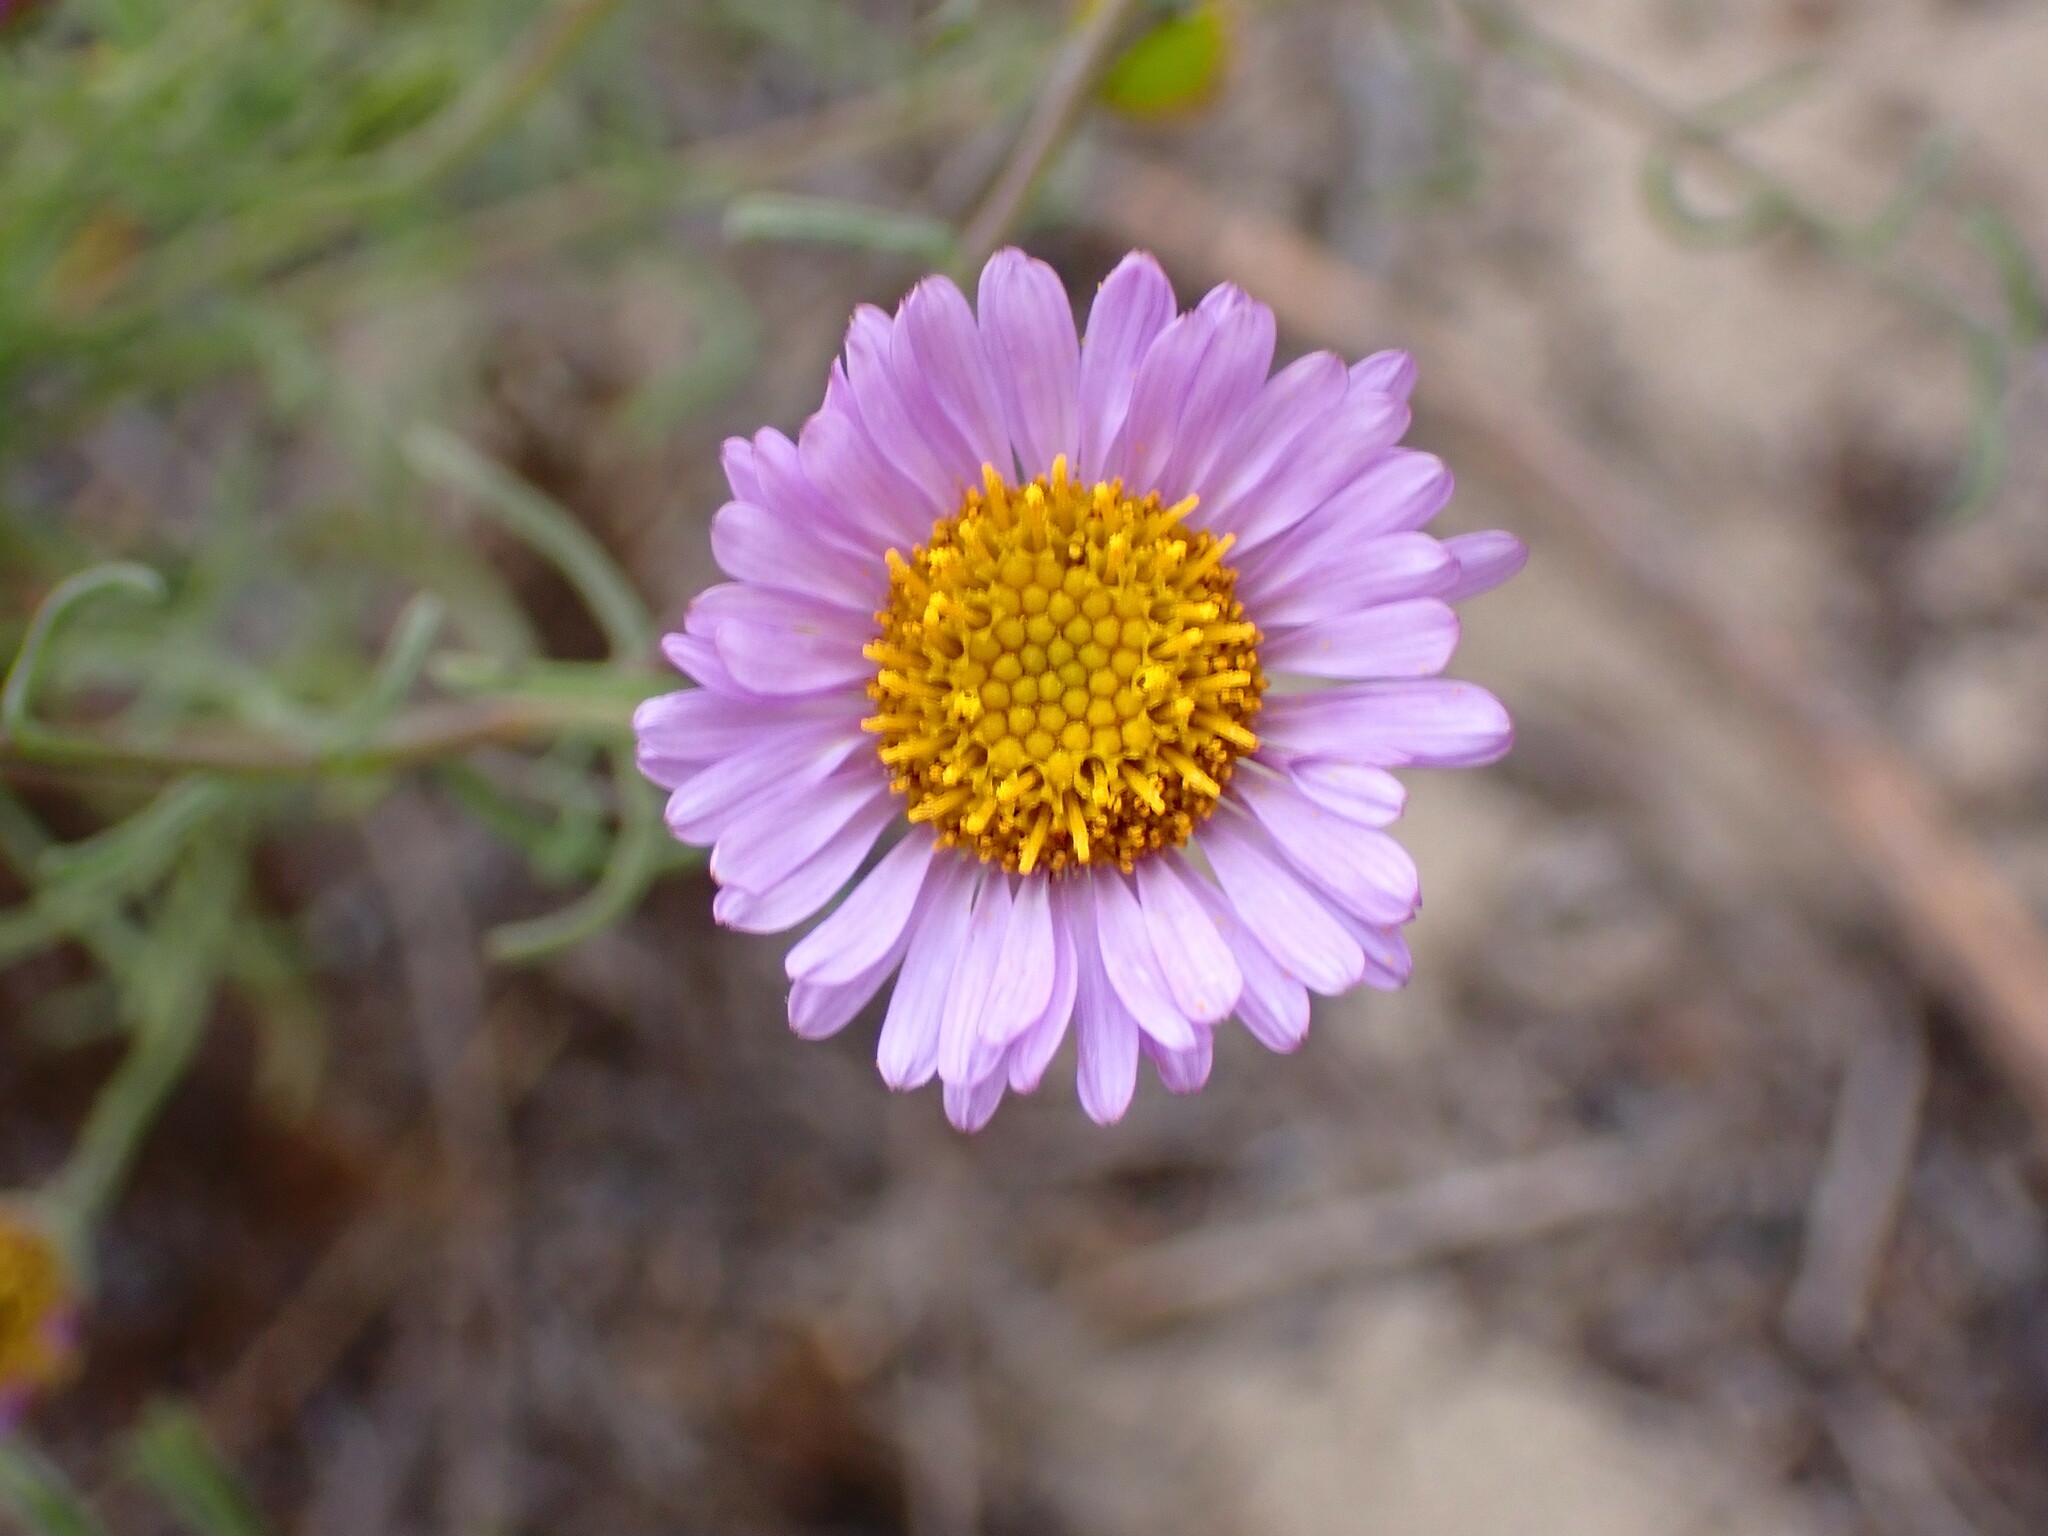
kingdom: Plantae
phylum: Tracheophyta
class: Magnoliopsida
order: Asterales
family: Asteraceae
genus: Erigeron
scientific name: Erigeron foliosus
